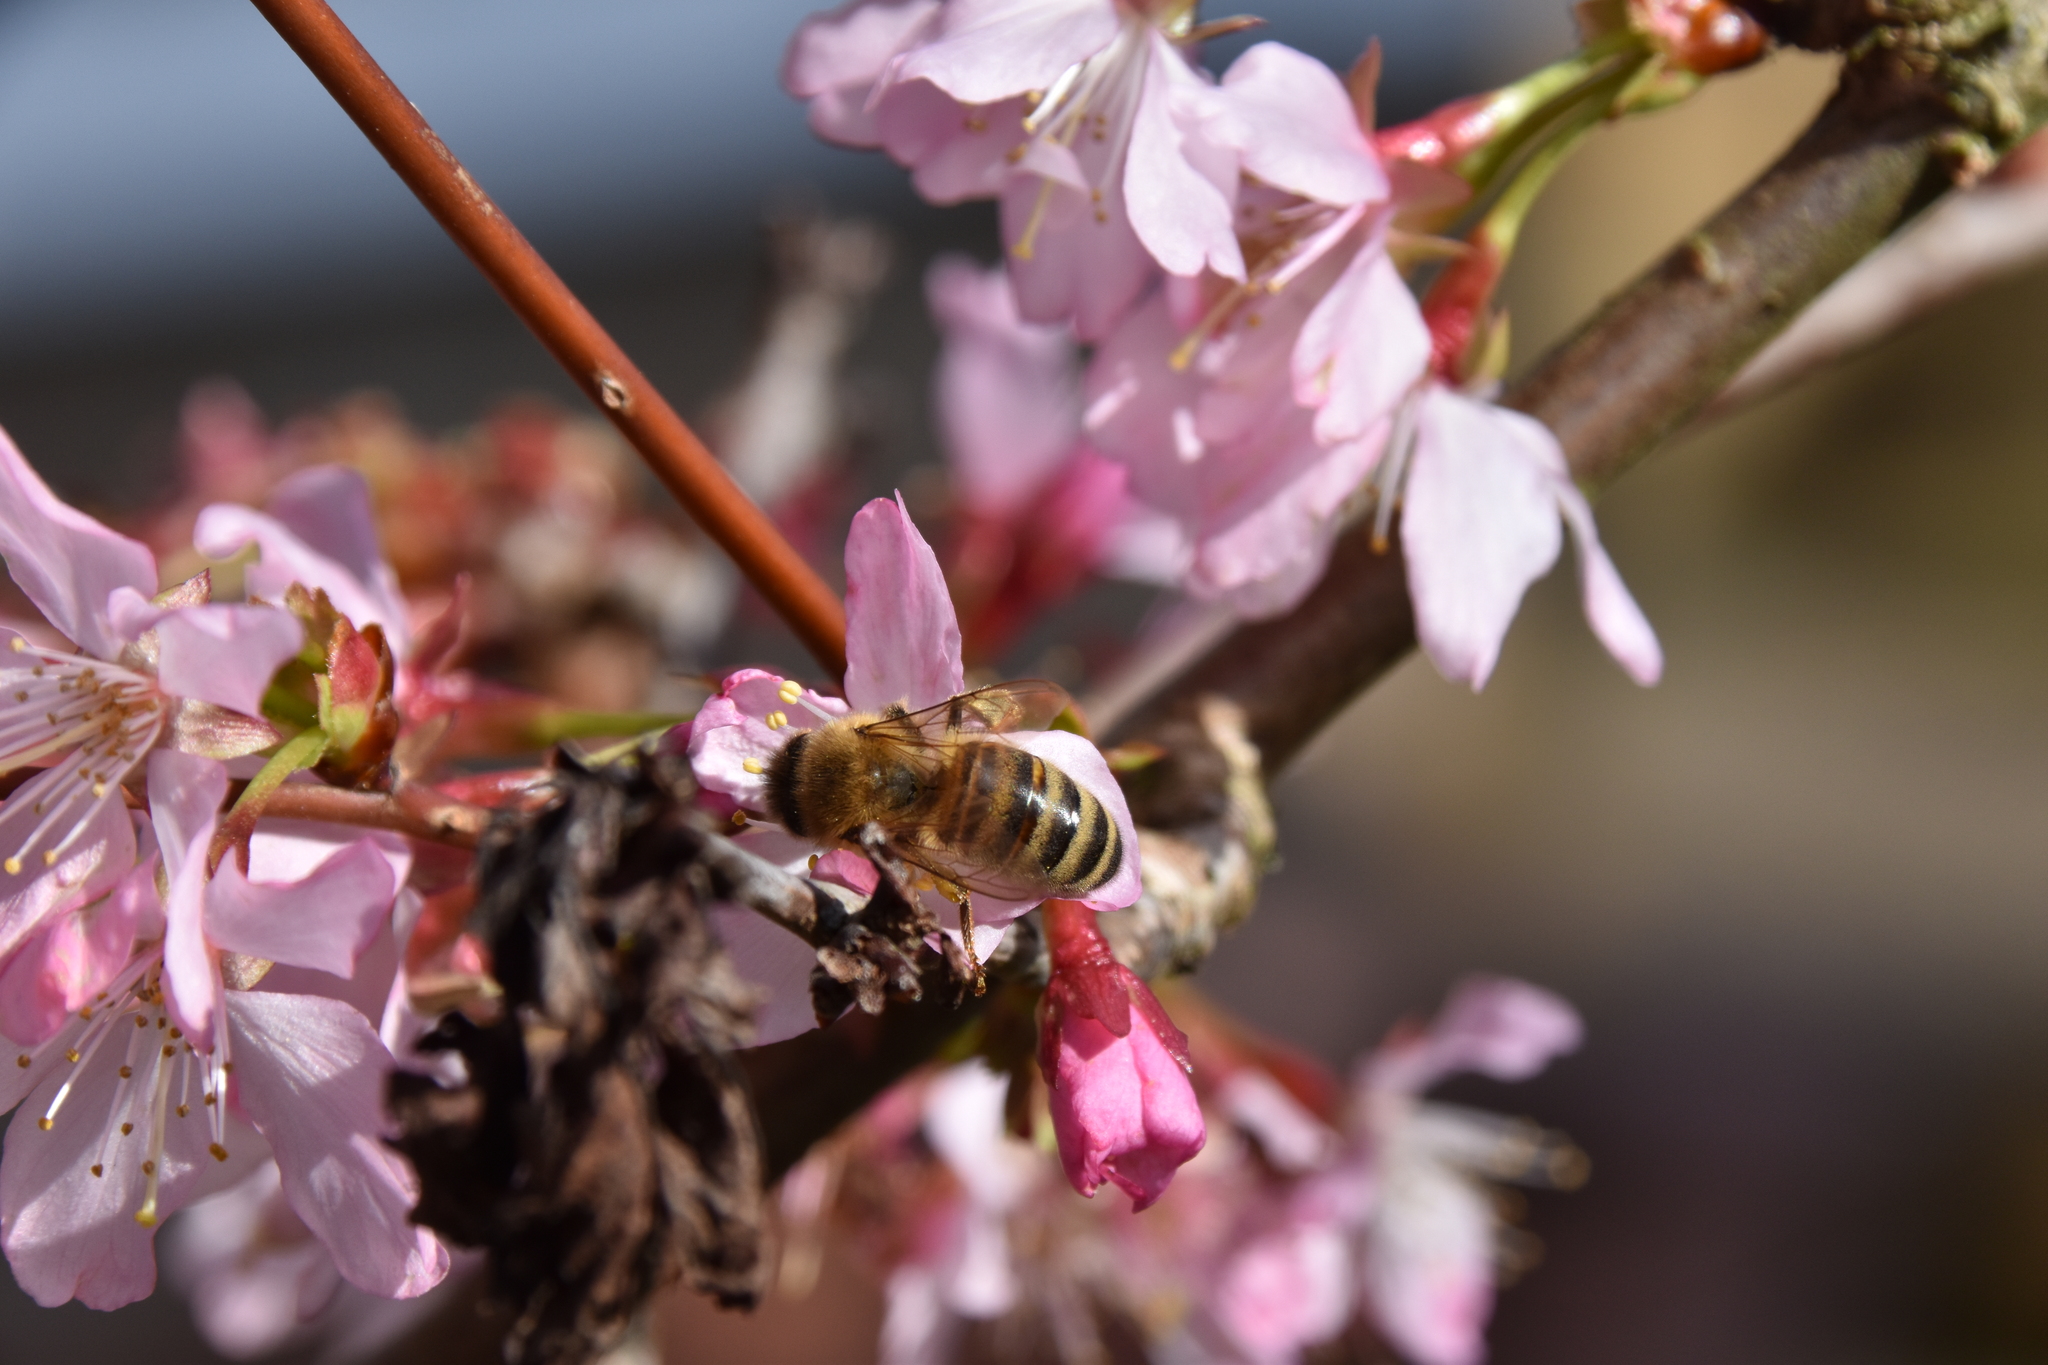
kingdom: Animalia
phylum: Arthropoda
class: Insecta
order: Hymenoptera
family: Apidae
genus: Apis
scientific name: Apis mellifera
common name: Honey bee
